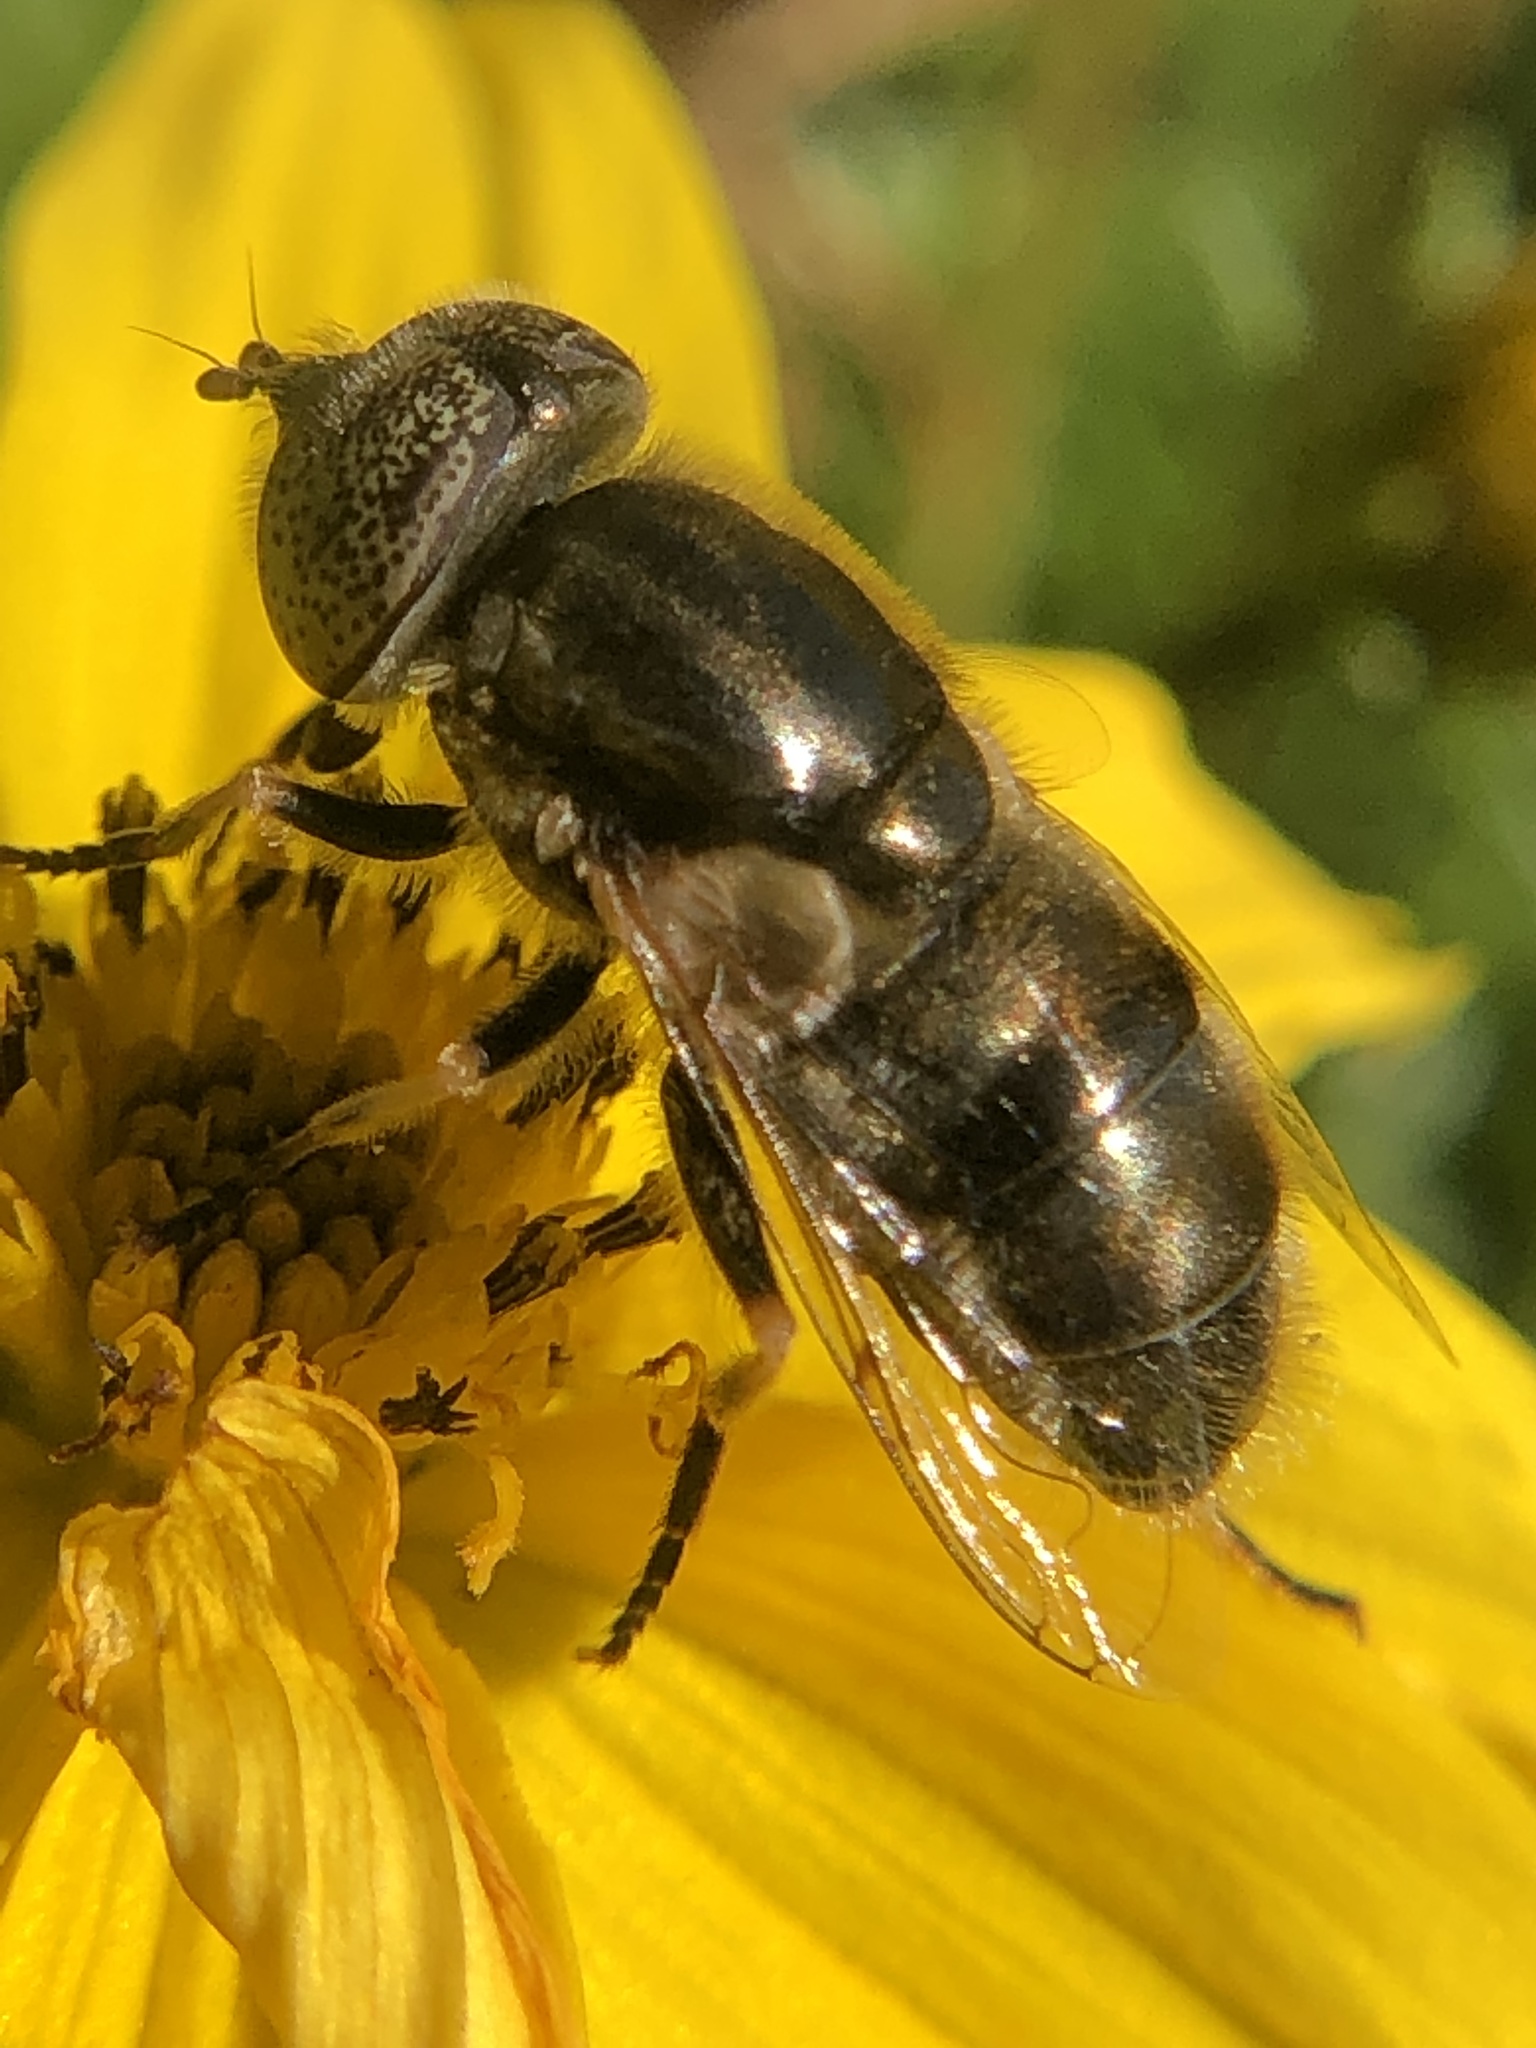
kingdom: Animalia
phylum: Arthropoda
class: Insecta
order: Diptera
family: Syrphidae
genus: Eristalinus
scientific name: Eristalinus aeneus
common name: Syrphid fly
